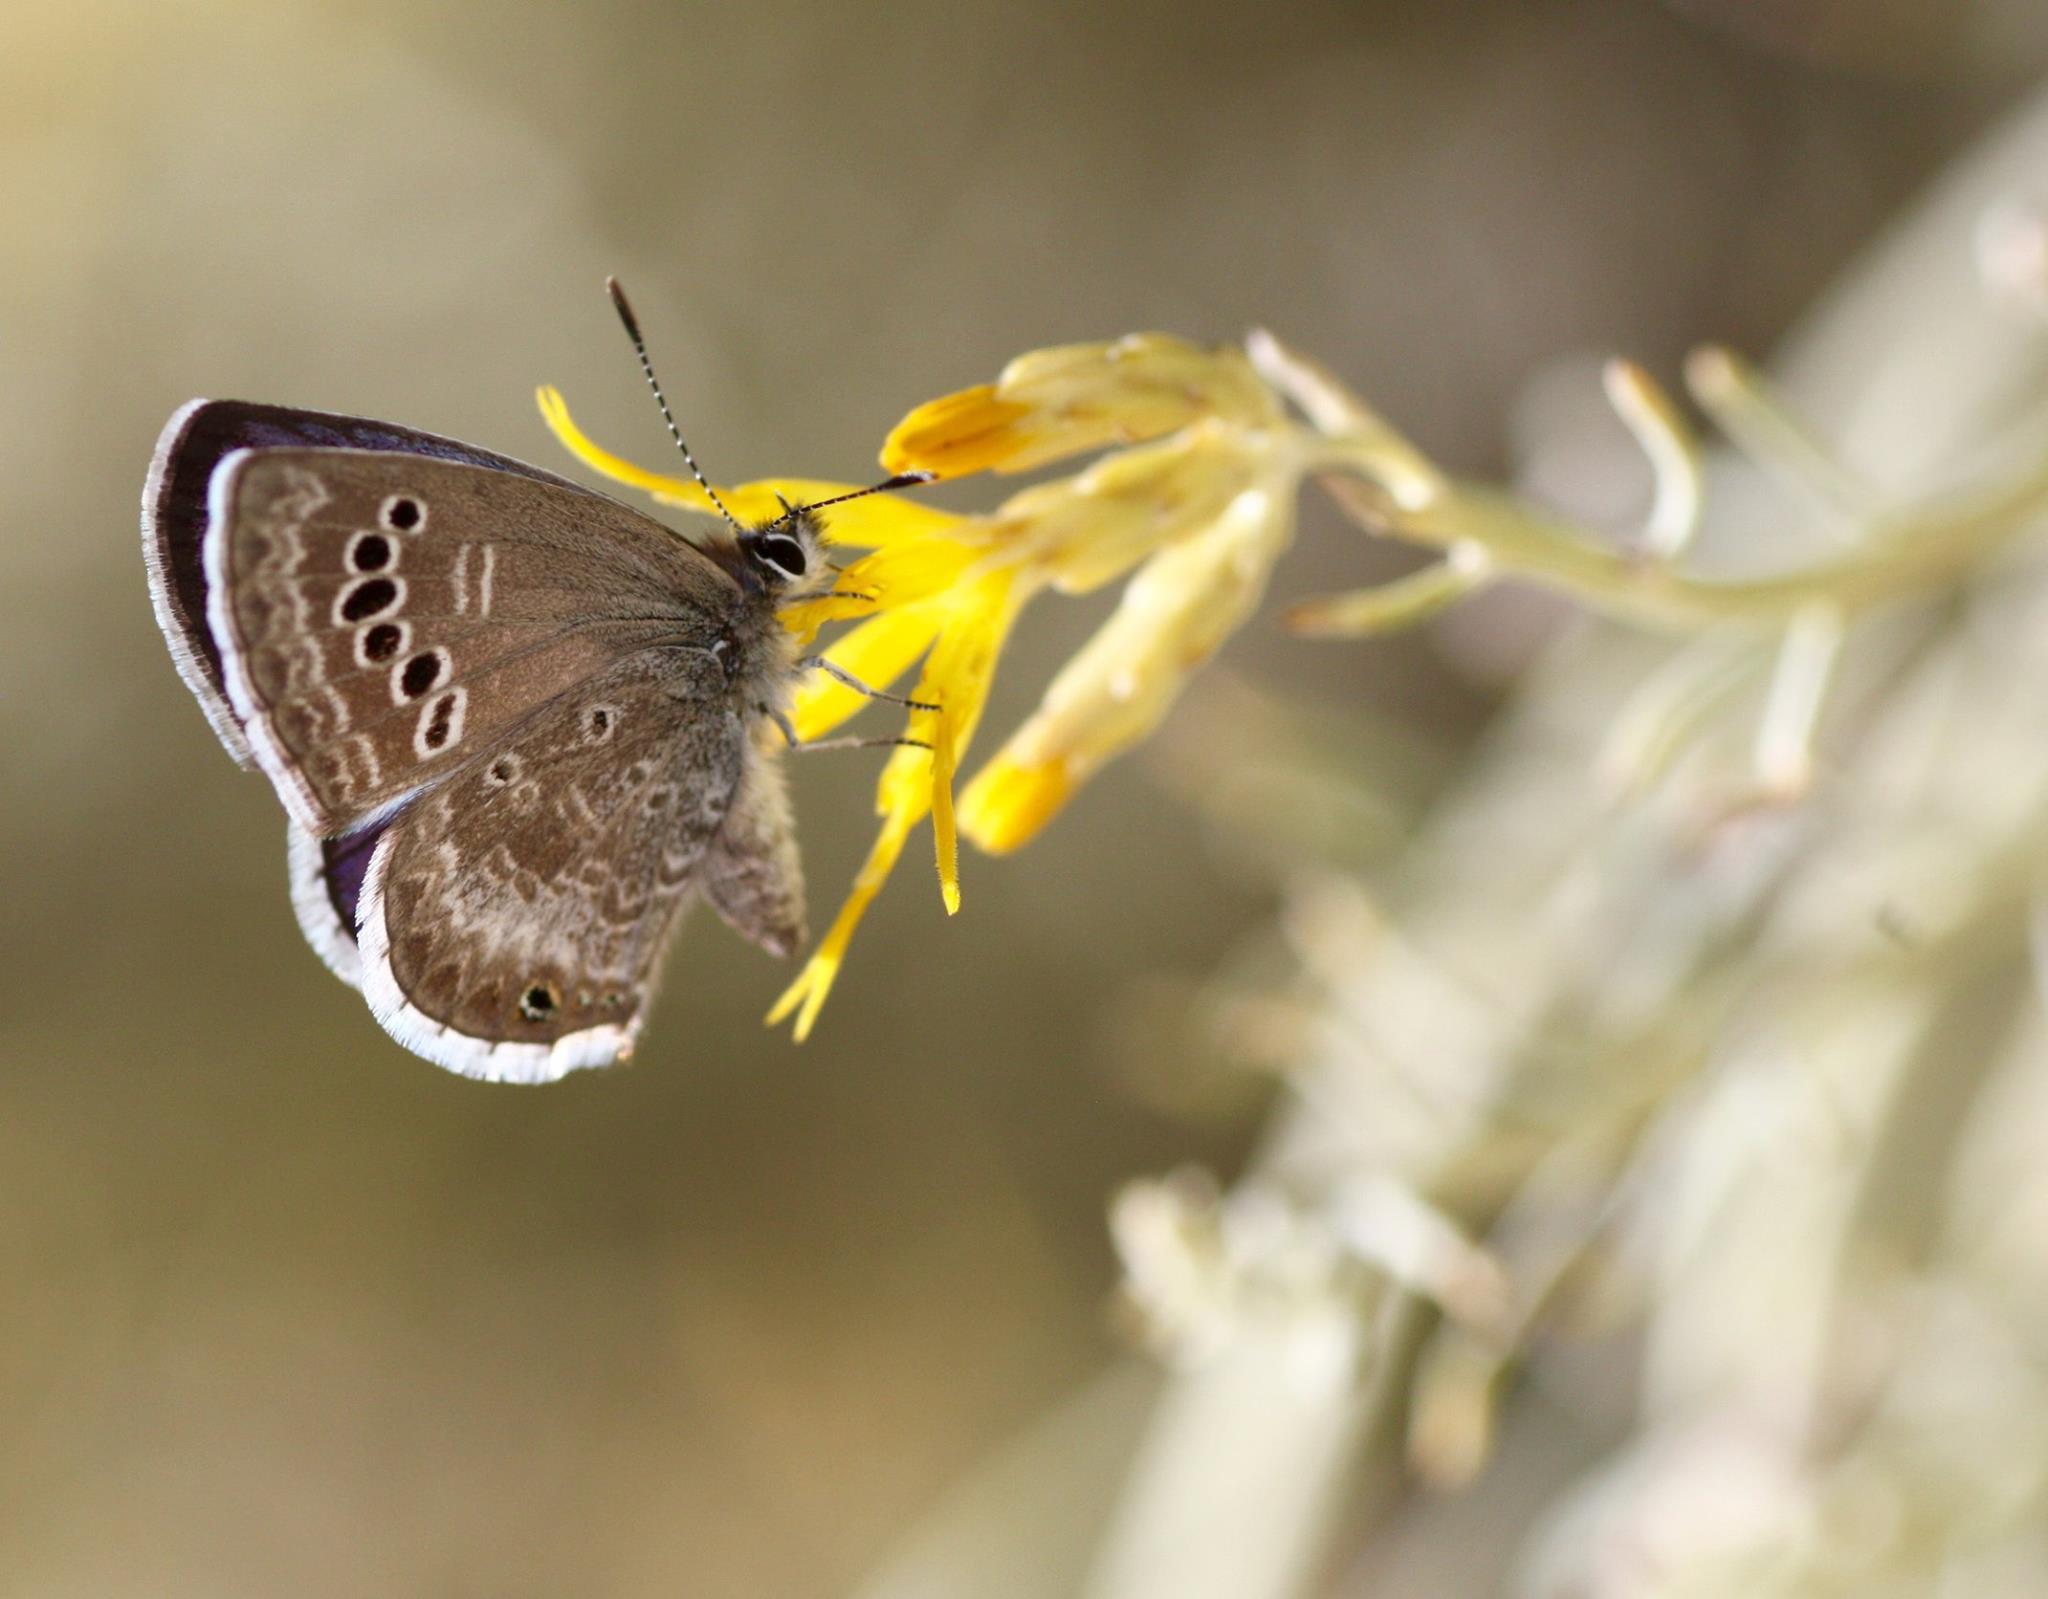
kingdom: Animalia
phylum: Arthropoda
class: Insecta
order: Lepidoptera
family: Lycaenidae
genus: Echinargus
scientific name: Echinargus isola
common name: Reakirt's blue
